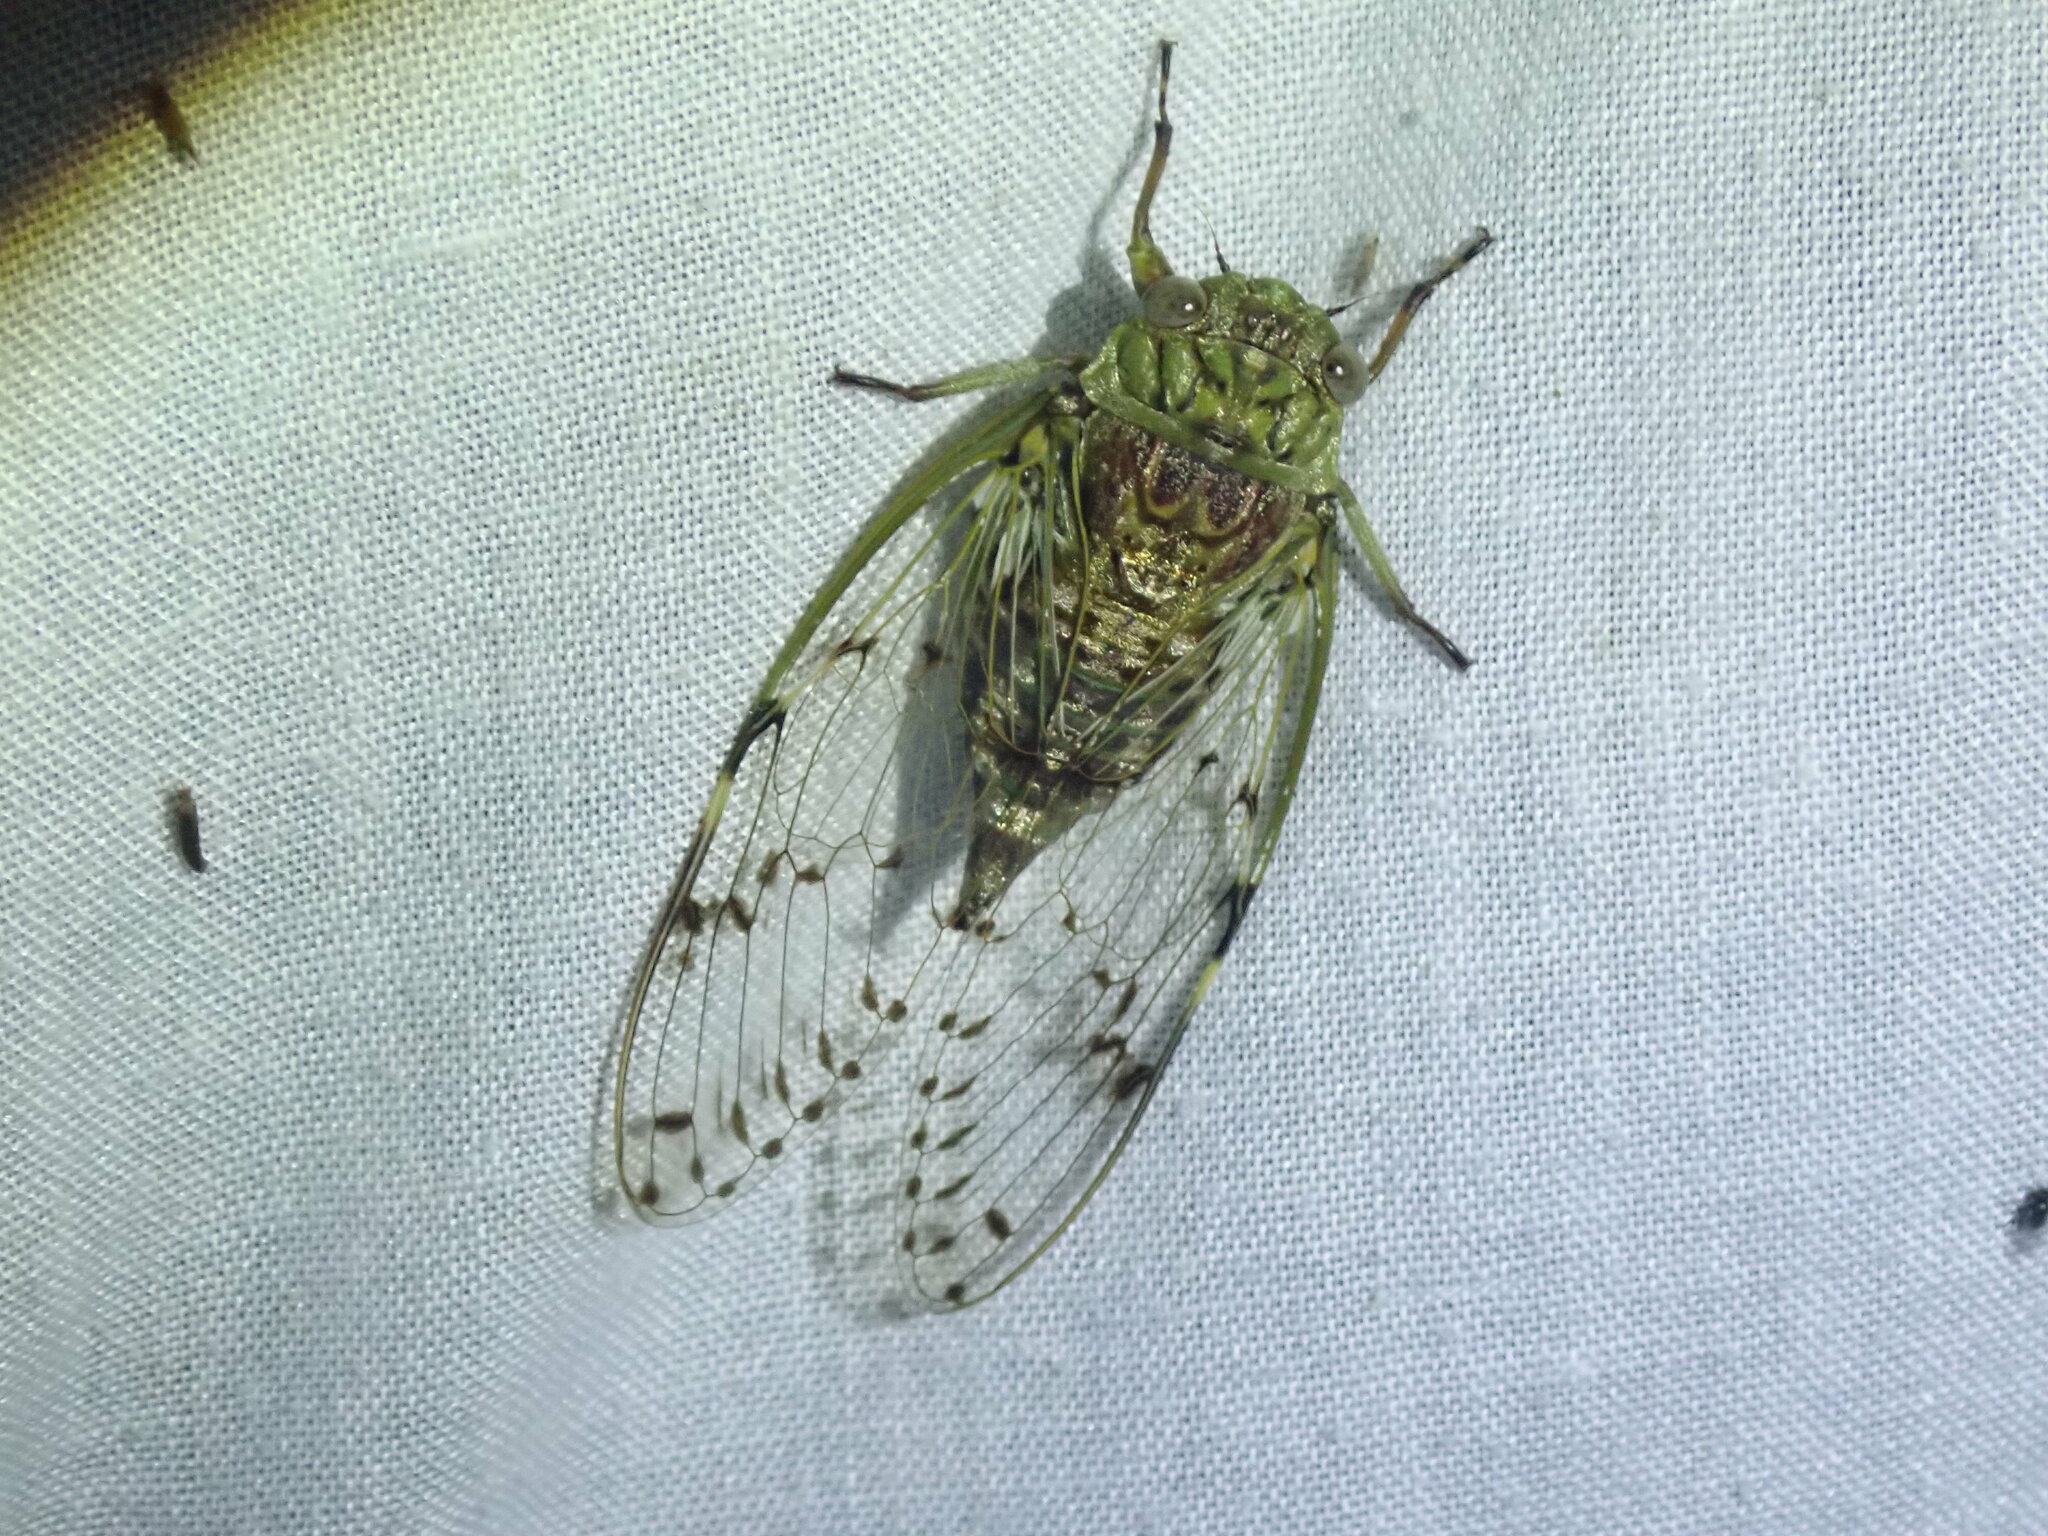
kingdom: Animalia
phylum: Arthropoda
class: Insecta
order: Hemiptera
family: Cicadidae
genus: Proarna
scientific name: Proarna sallei
